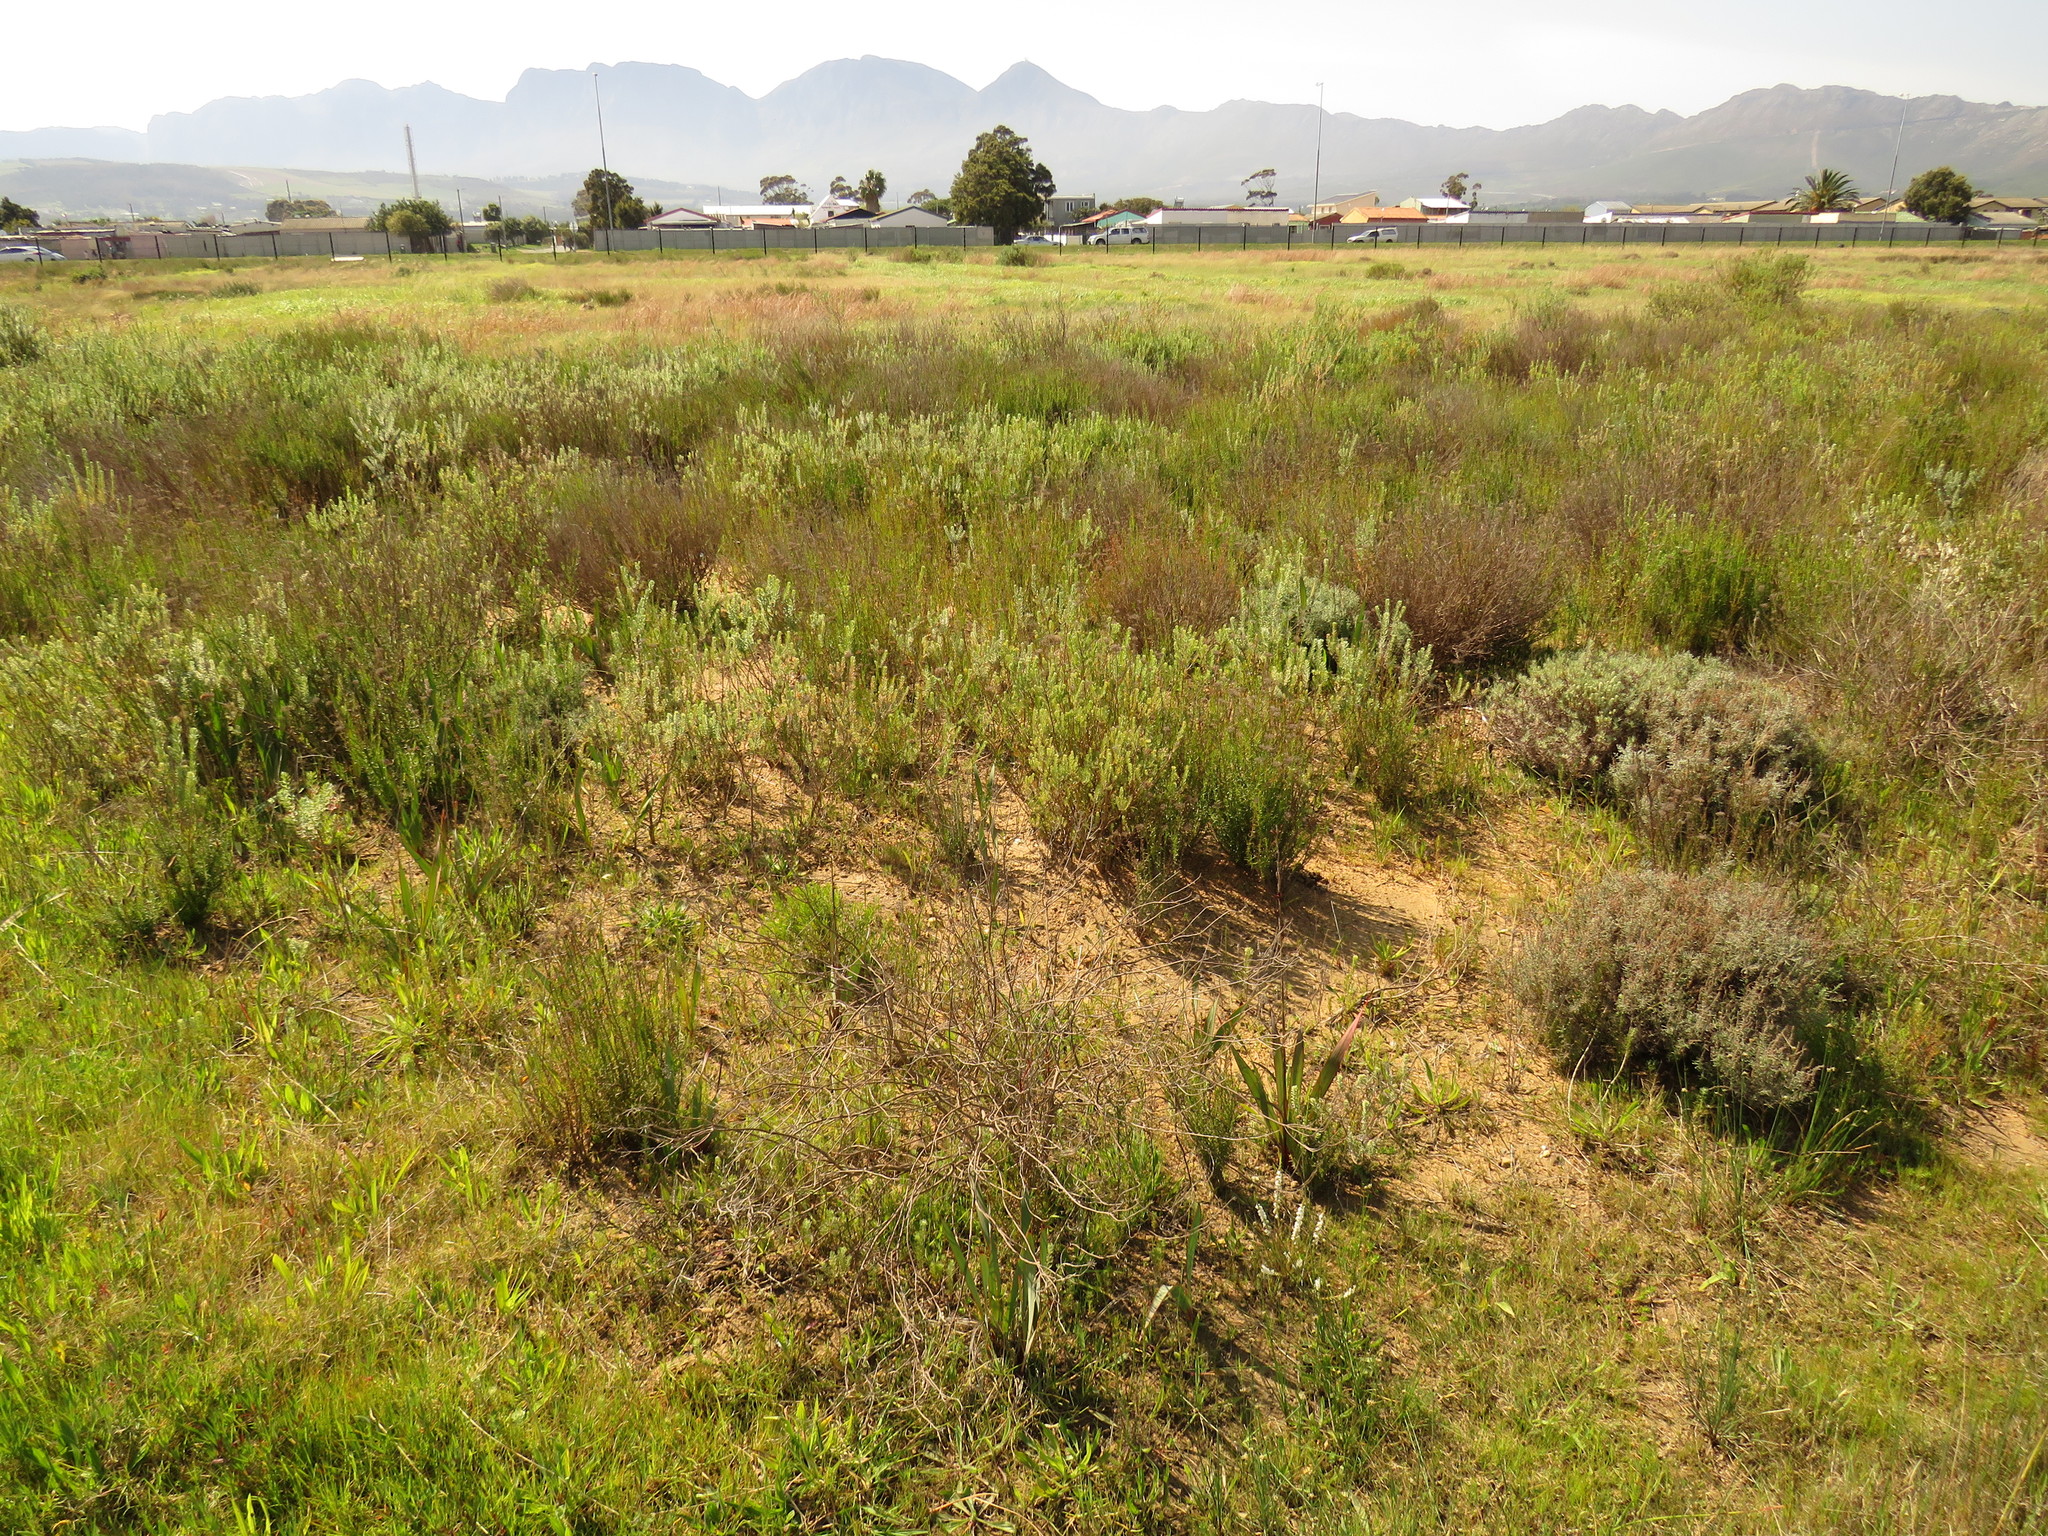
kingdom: Plantae
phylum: Tracheophyta
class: Liliopsida
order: Asparagales
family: Iridaceae
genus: Watsonia
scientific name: Watsonia humilis
